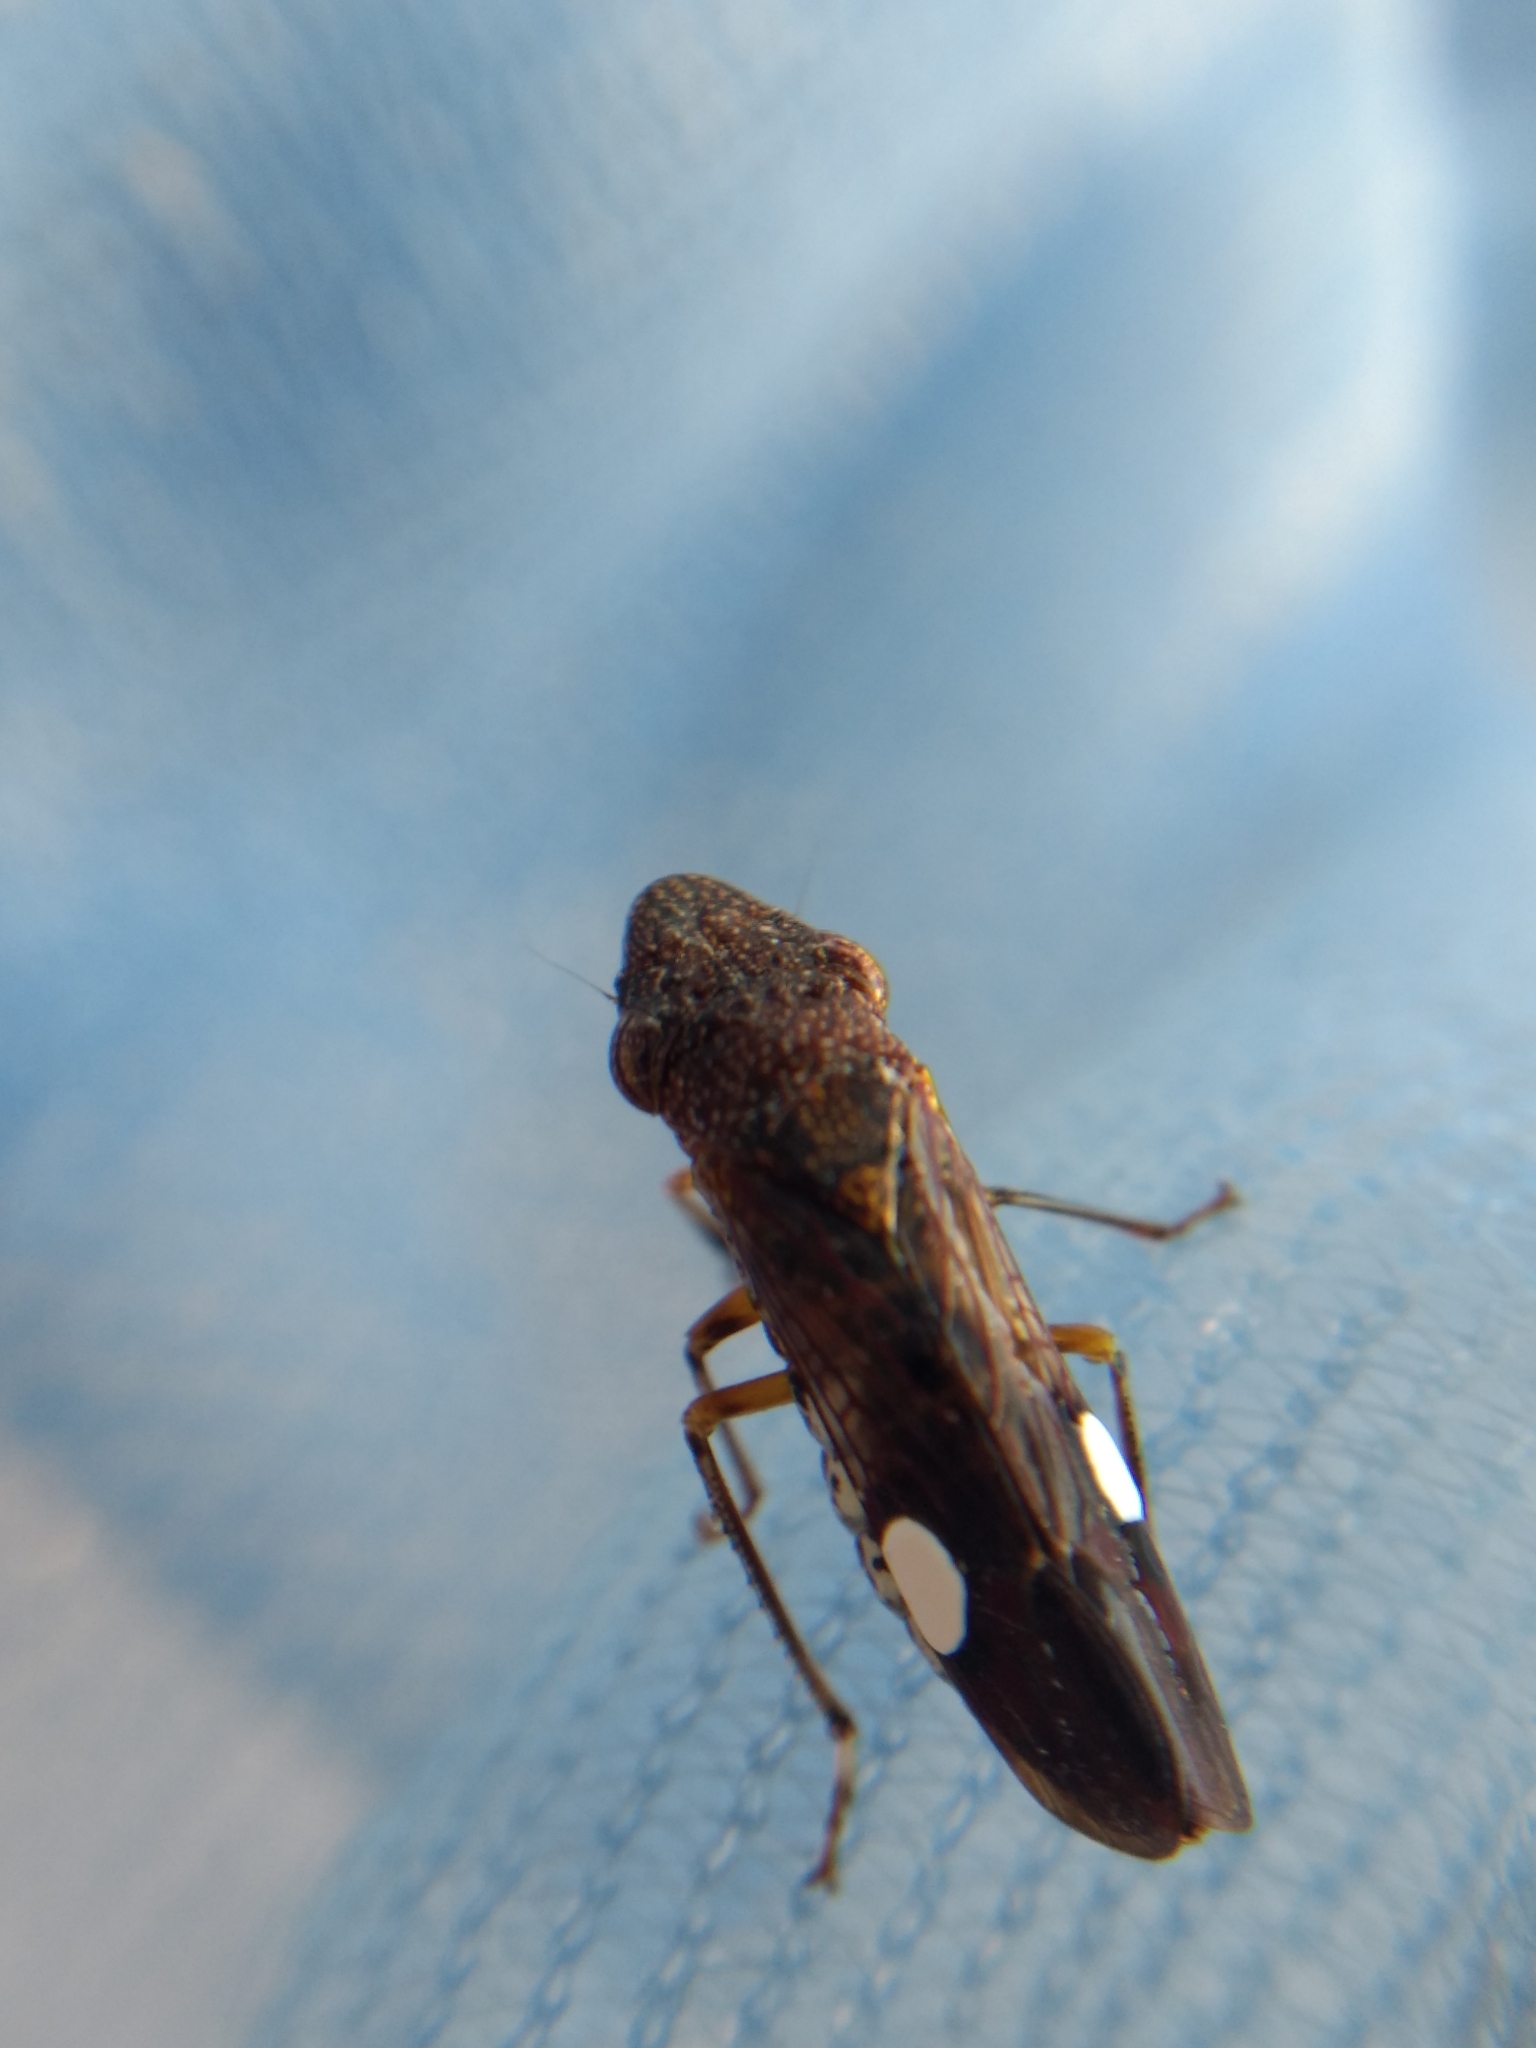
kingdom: Animalia
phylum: Arthropoda
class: Insecta
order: Hemiptera
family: Cicadellidae
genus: Homalodisca
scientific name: Homalodisca vitripennis
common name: Glassy-winged sharpshooter
